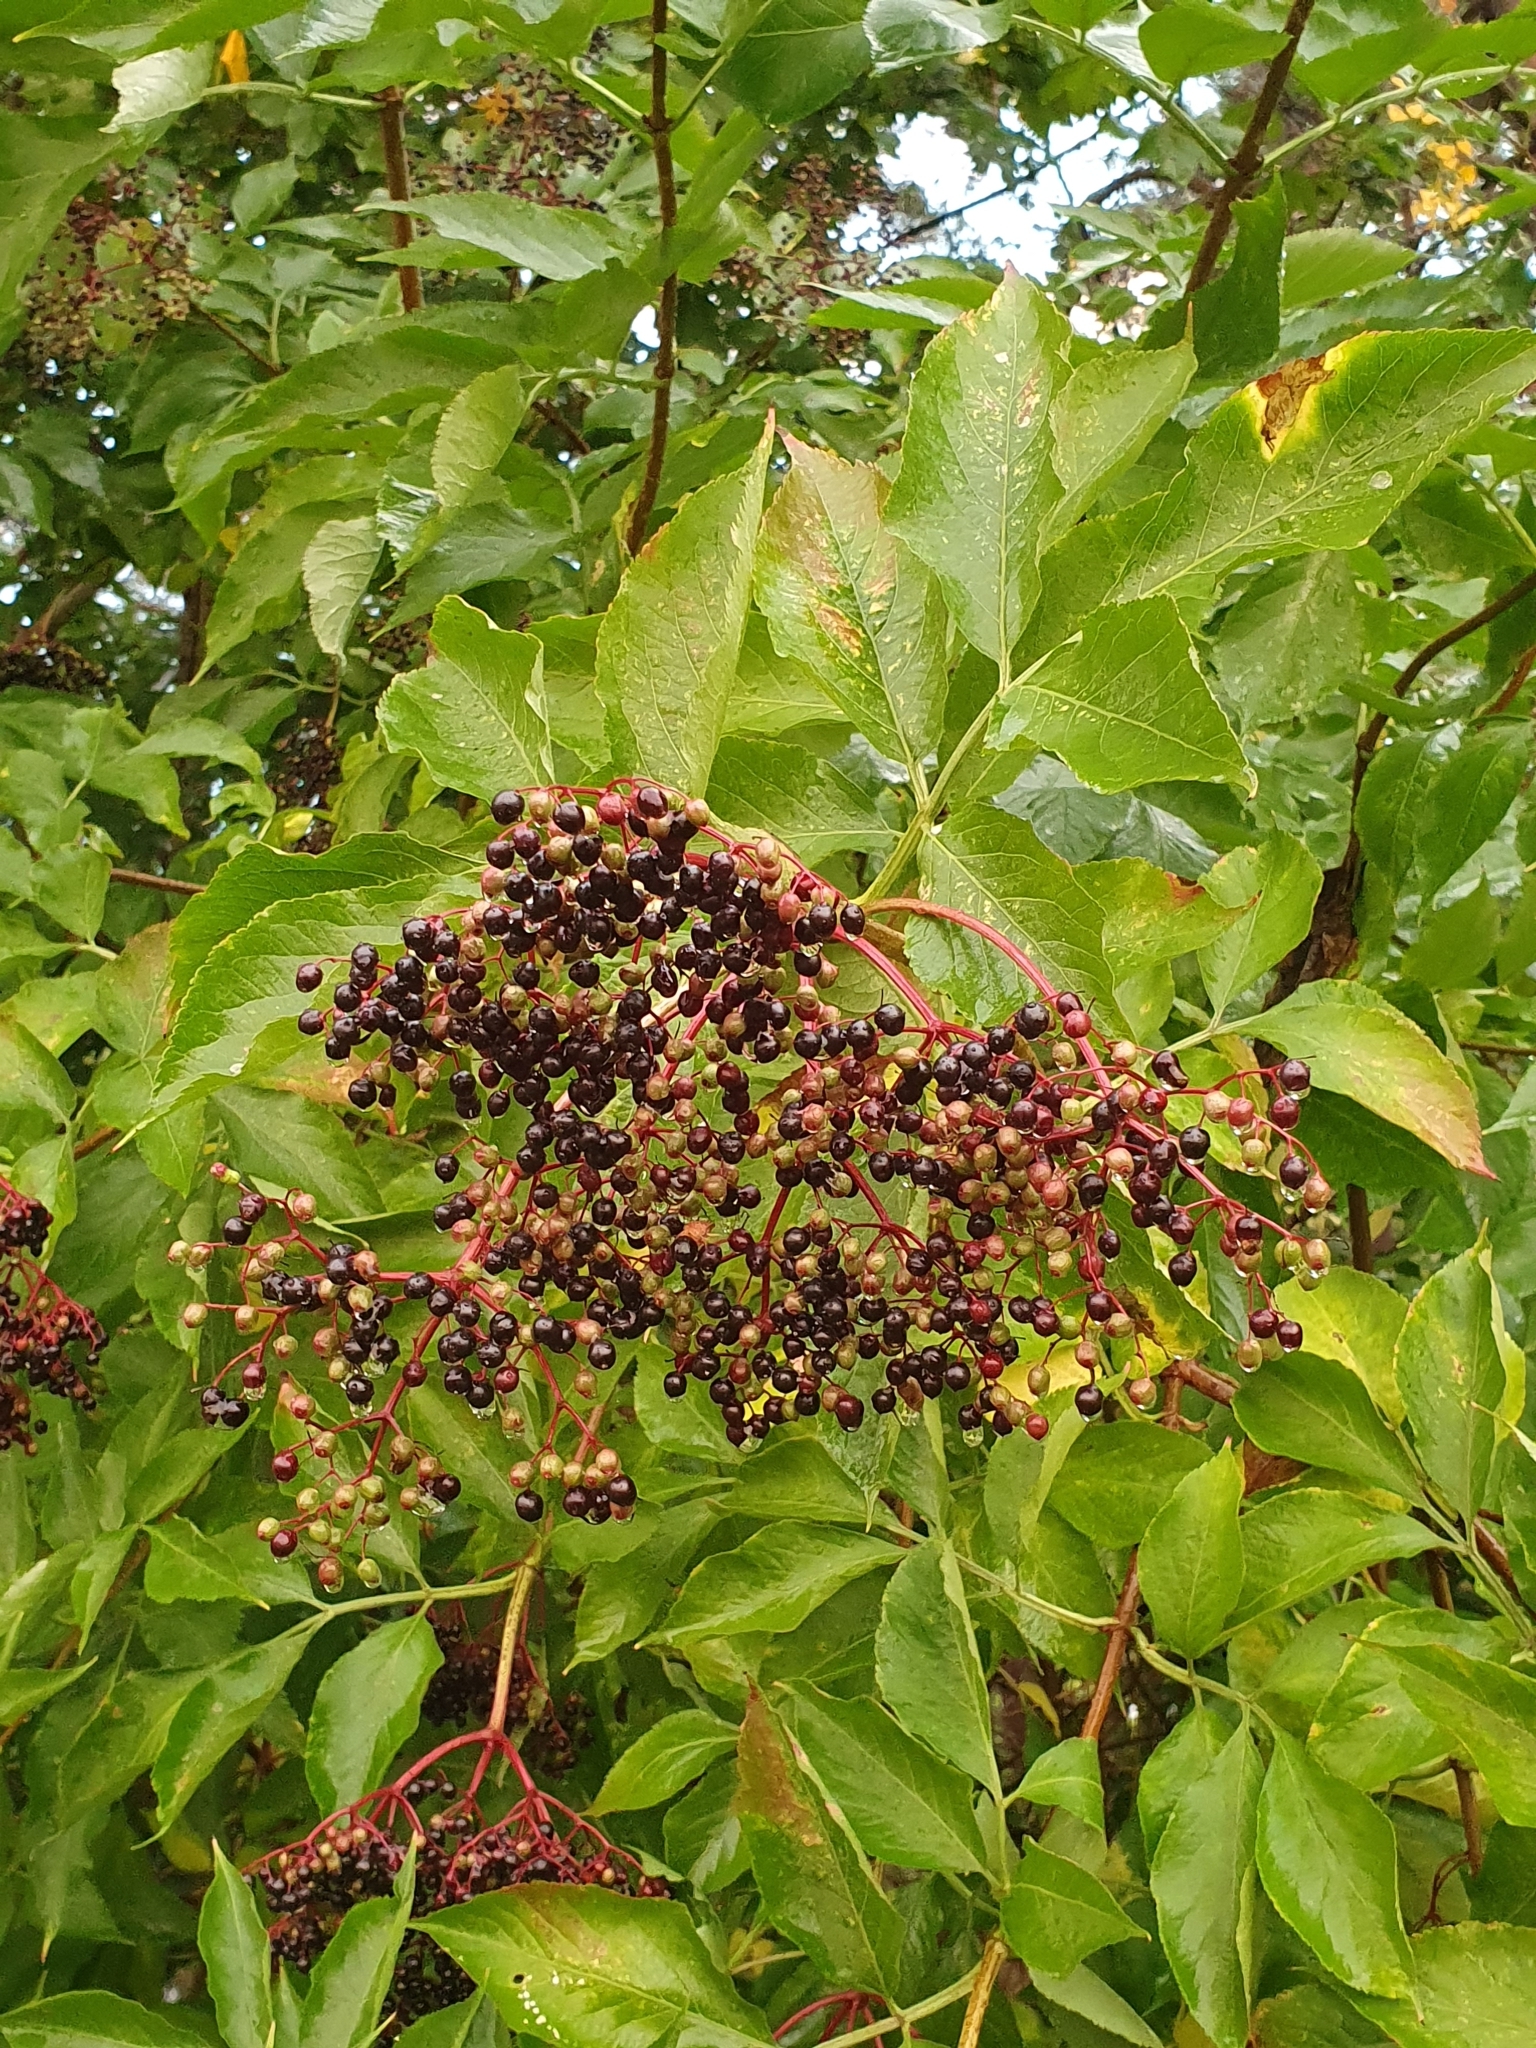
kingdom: Plantae
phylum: Tracheophyta
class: Magnoliopsida
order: Dipsacales
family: Viburnaceae
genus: Sambucus
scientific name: Sambucus nigra
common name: Elder
